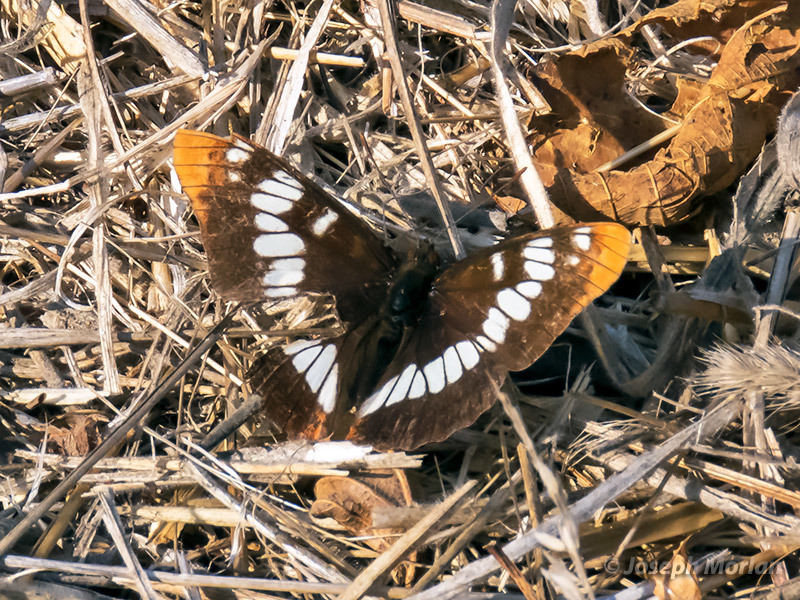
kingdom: Animalia
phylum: Arthropoda
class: Insecta
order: Lepidoptera
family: Nymphalidae
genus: Limenitis
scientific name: Limenitis lorquini
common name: Lorquin's admiral
